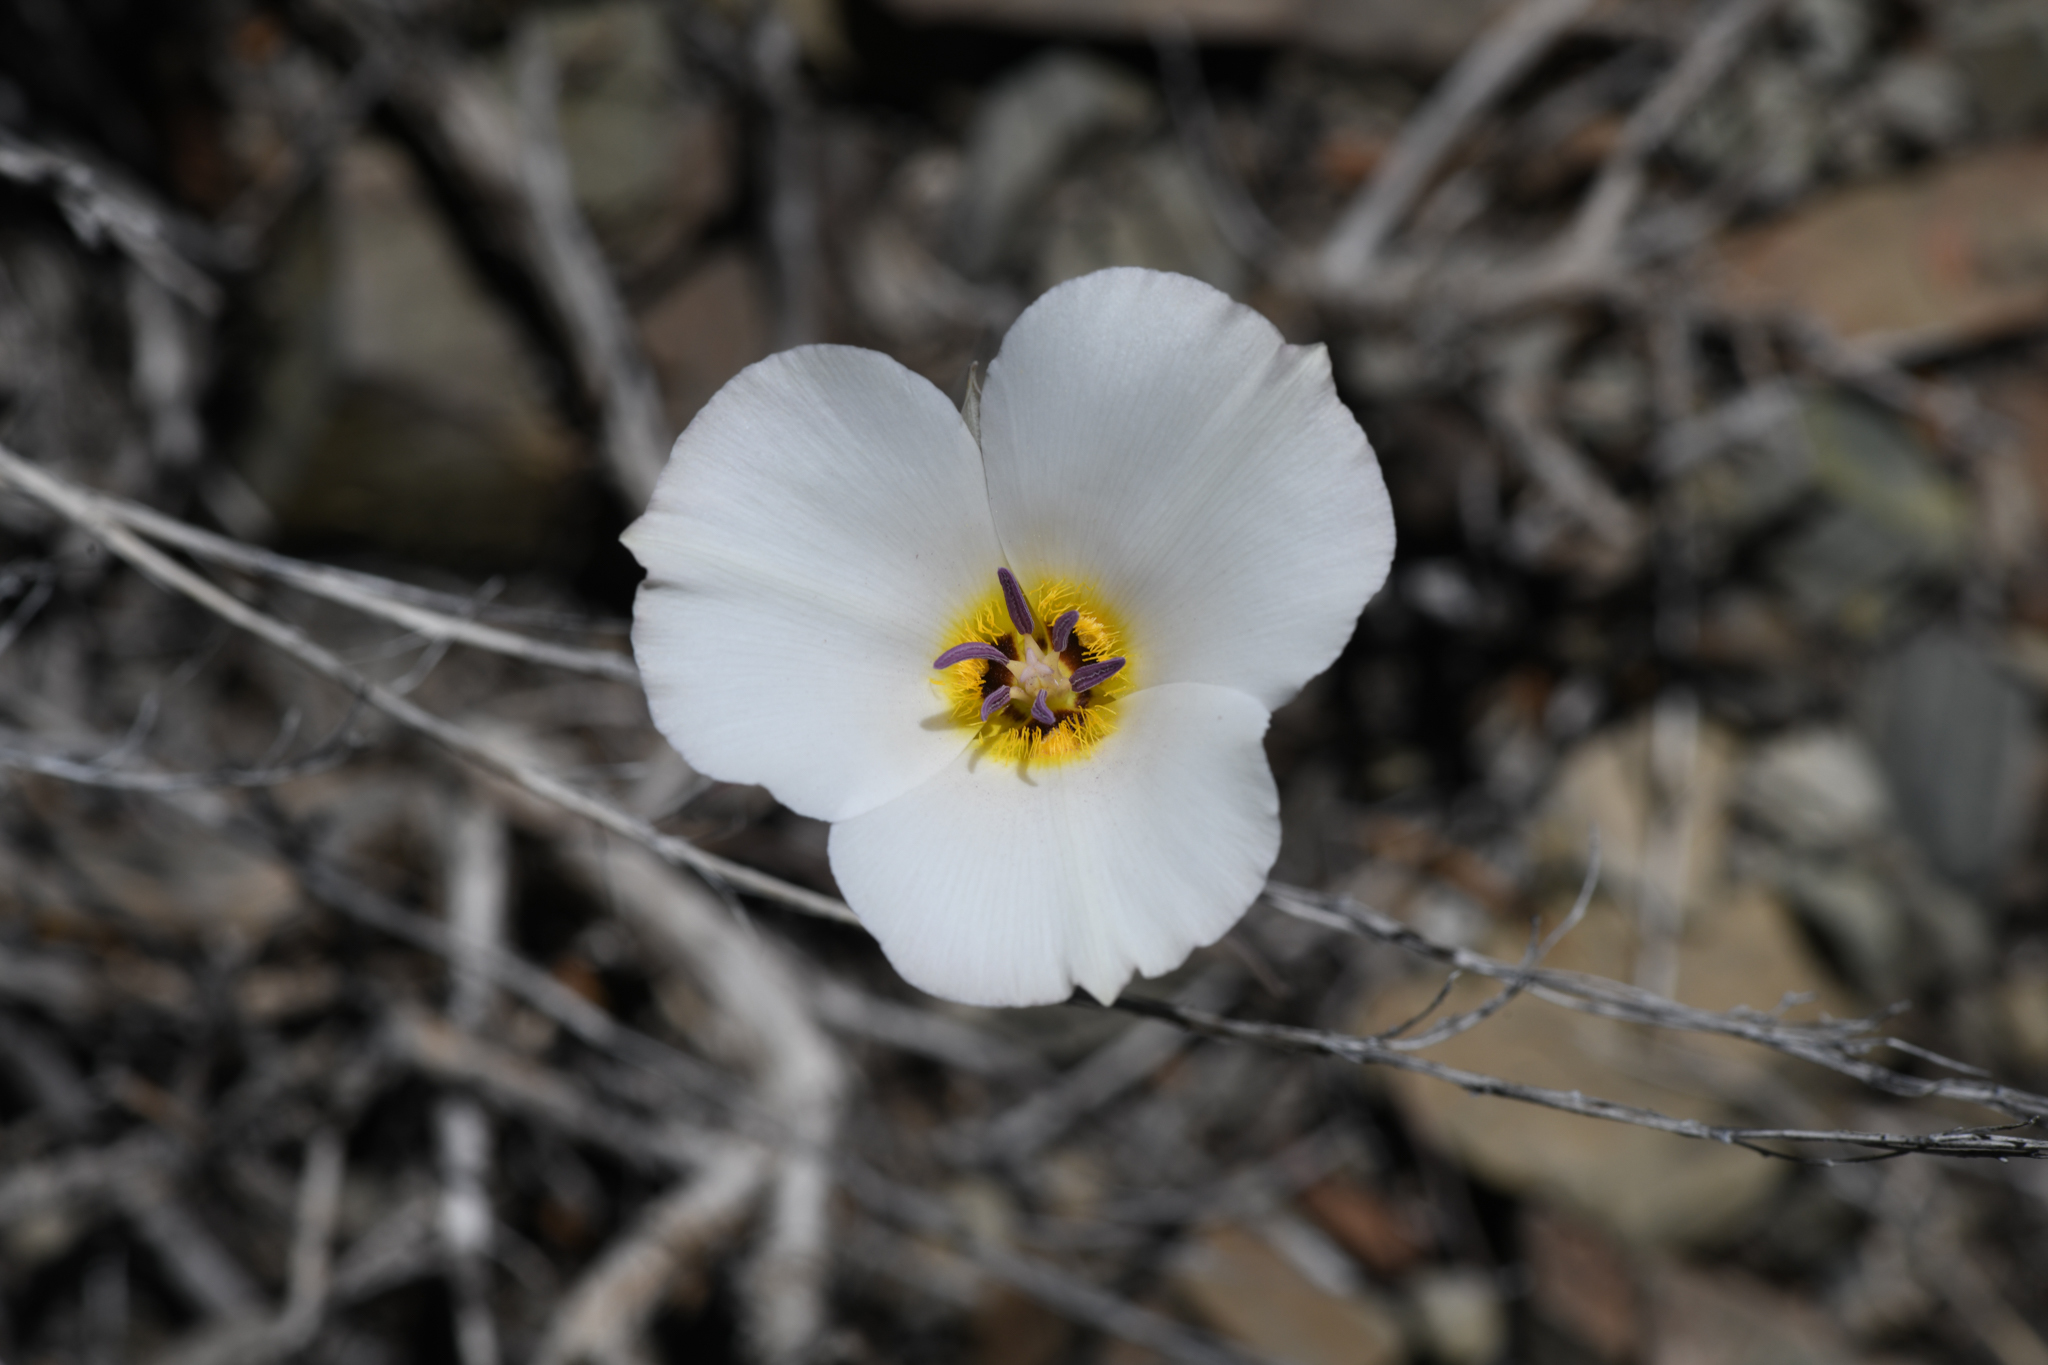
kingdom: Plantae
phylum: Tracheophyta
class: Liliopsida
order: Liliales
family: Liliaceae
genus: Calochortus
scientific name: Calochortus panamintensis
